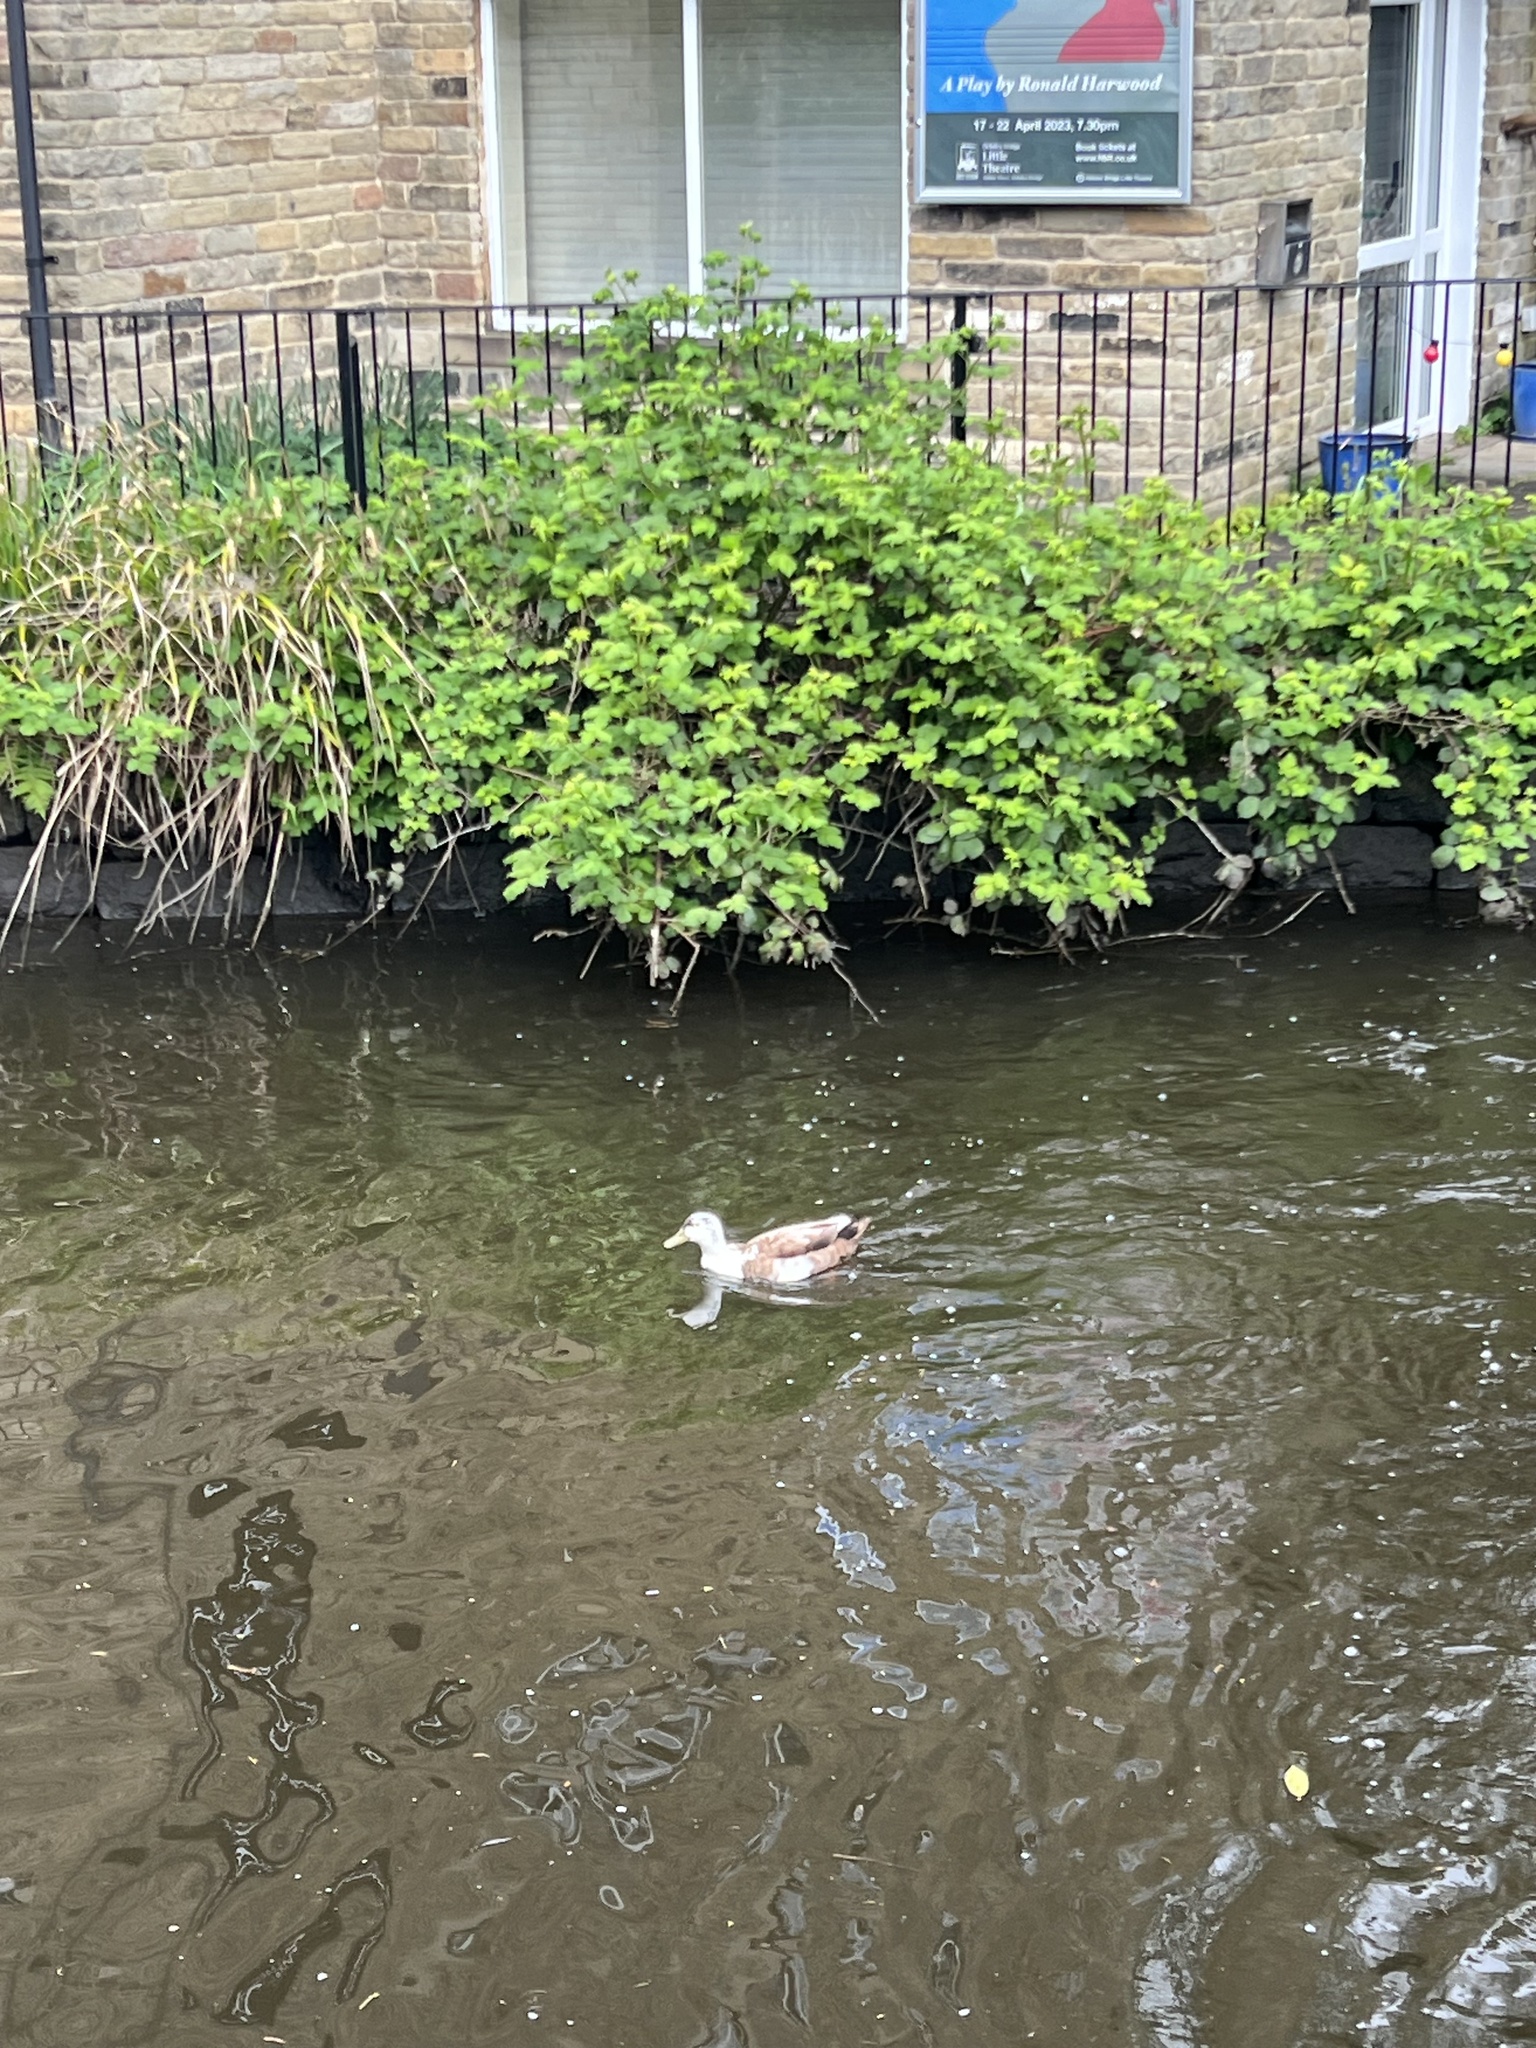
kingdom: Animalia
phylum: Chordata
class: Aves
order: Anseriformes
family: Anatidae
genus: Anas
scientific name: Anas platyrhynchos
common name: Mallard
